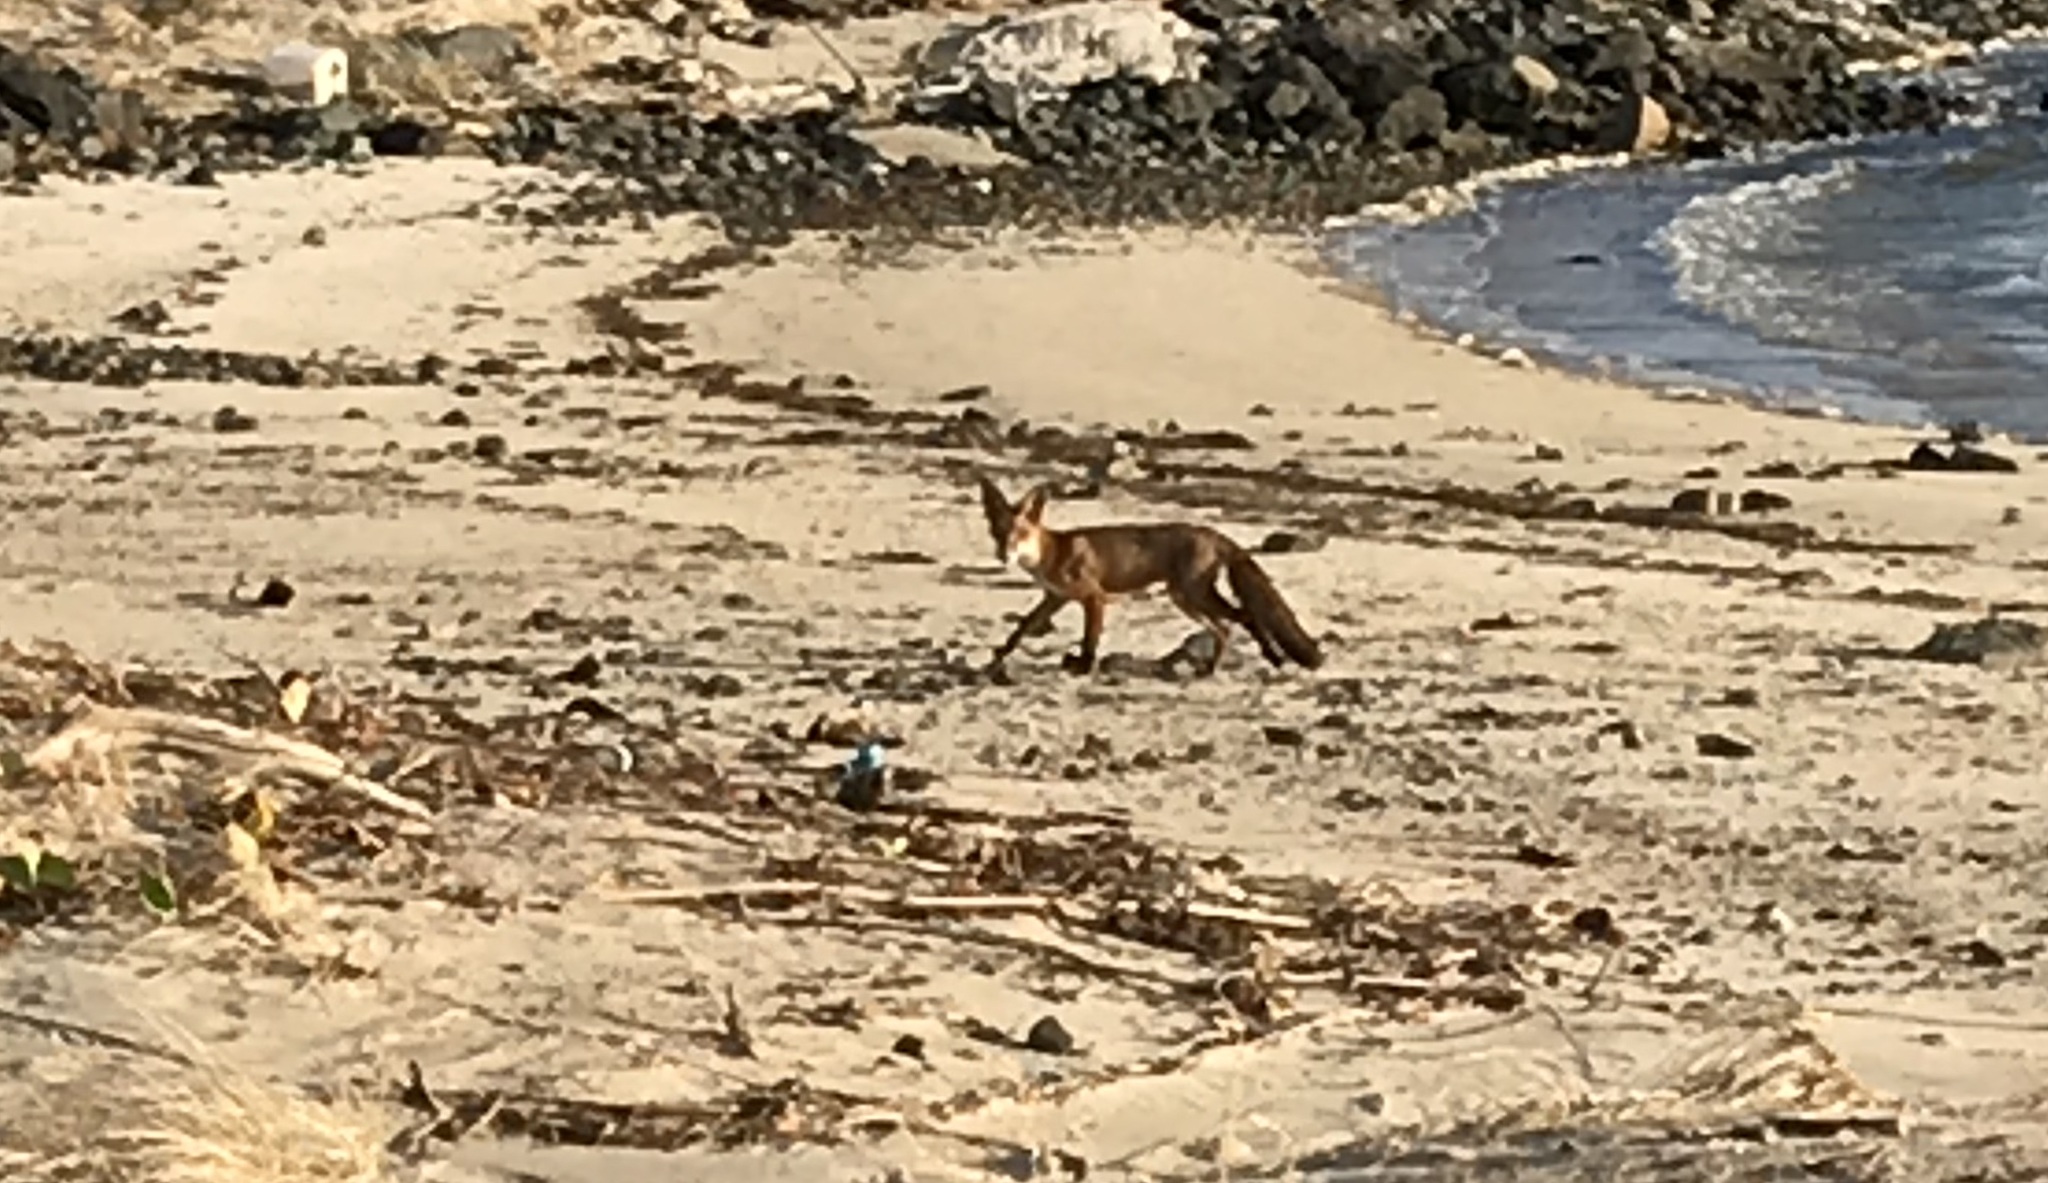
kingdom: Animalia
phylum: Chordata
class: Mammalia
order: Carnivora
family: Canidae
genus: Vulpes
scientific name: Vulpes vulpes
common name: Red fox
